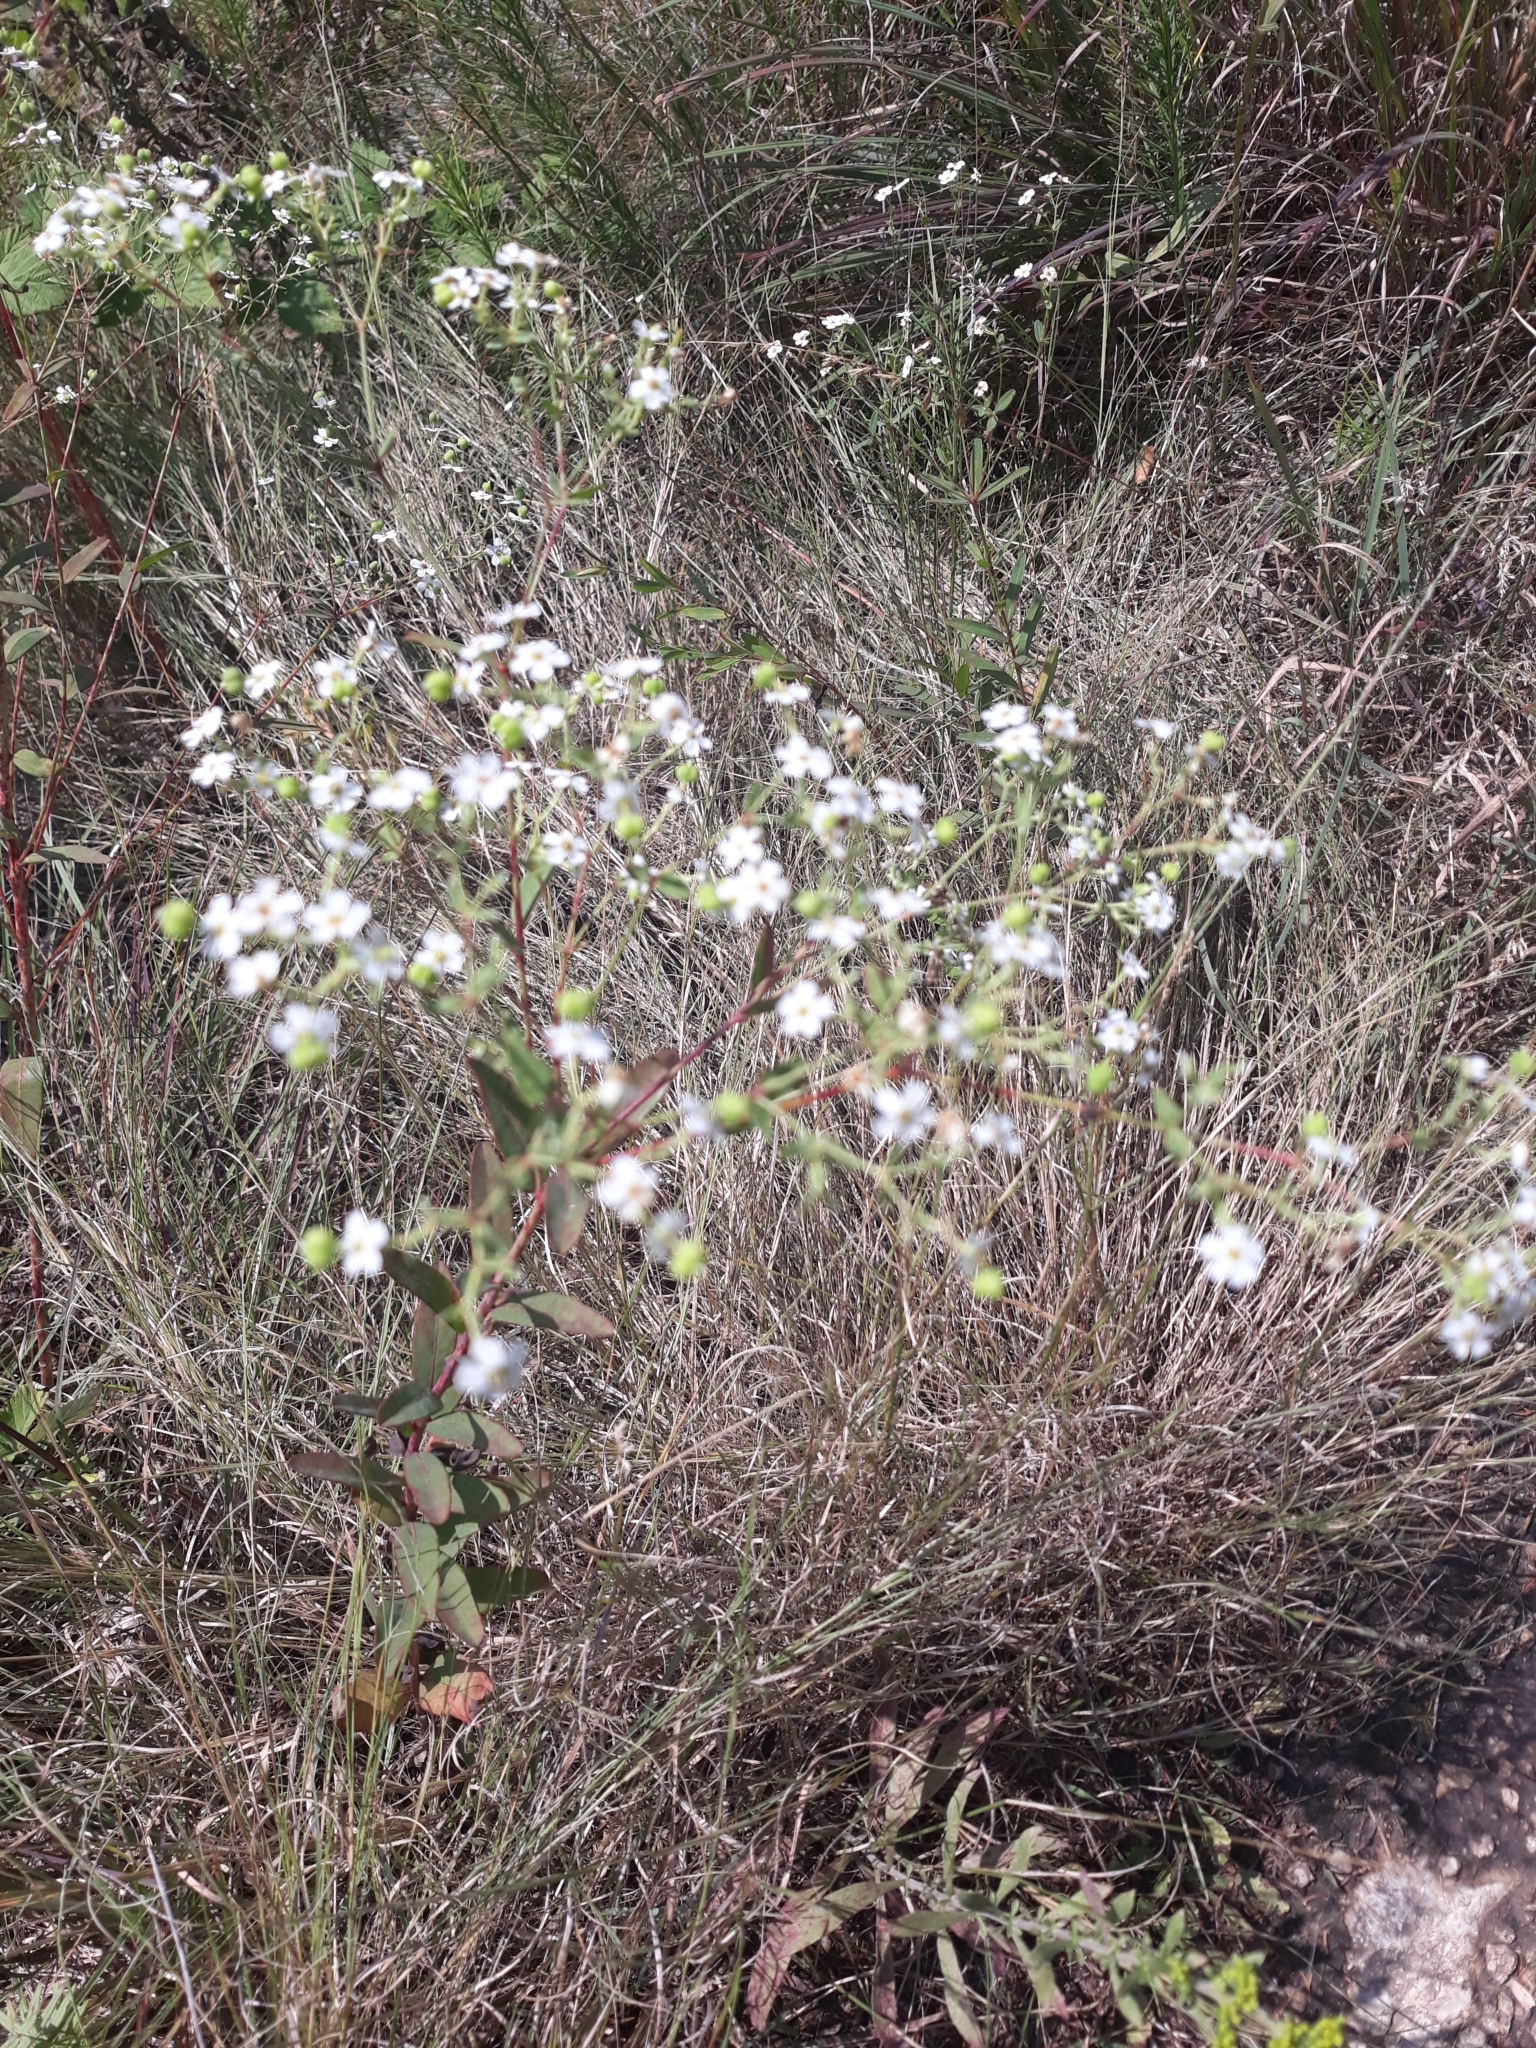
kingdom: Plantae
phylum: Tracheophyta
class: Magnoliopsida
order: Malpighiales
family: Euphorbiaceae
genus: Euphorbia
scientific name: Euphorbia corollata
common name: Flowering spurge
